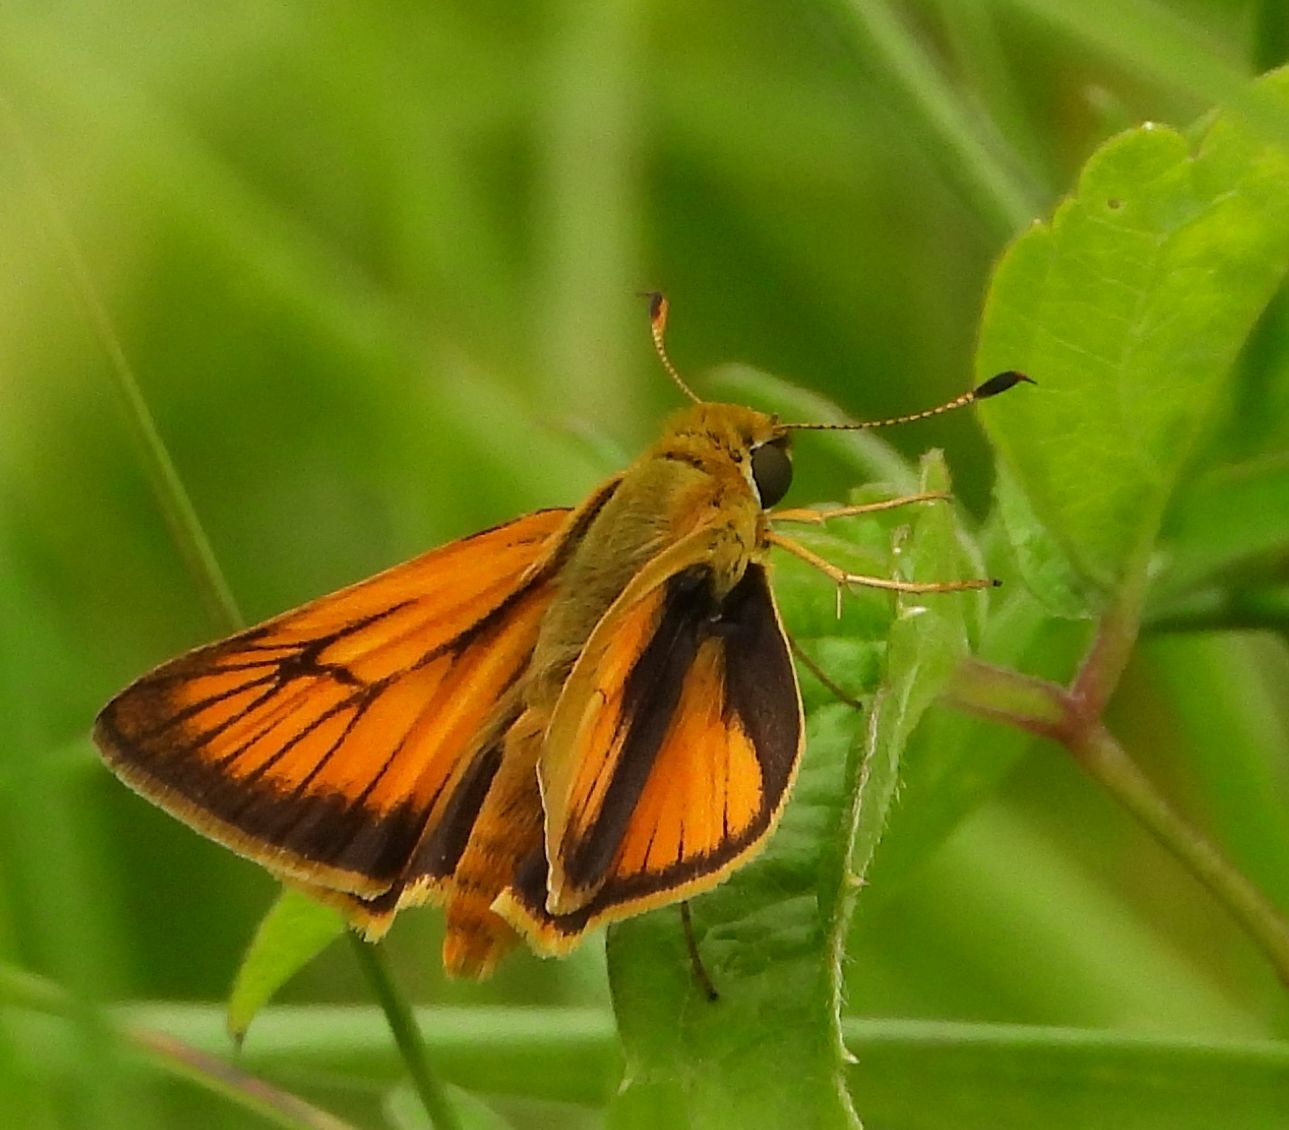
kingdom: Animalia
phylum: Arthropoda
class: Insecta
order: Lepidoptera
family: Hesperiidae
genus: Atrytone
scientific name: Atrytone delaware
